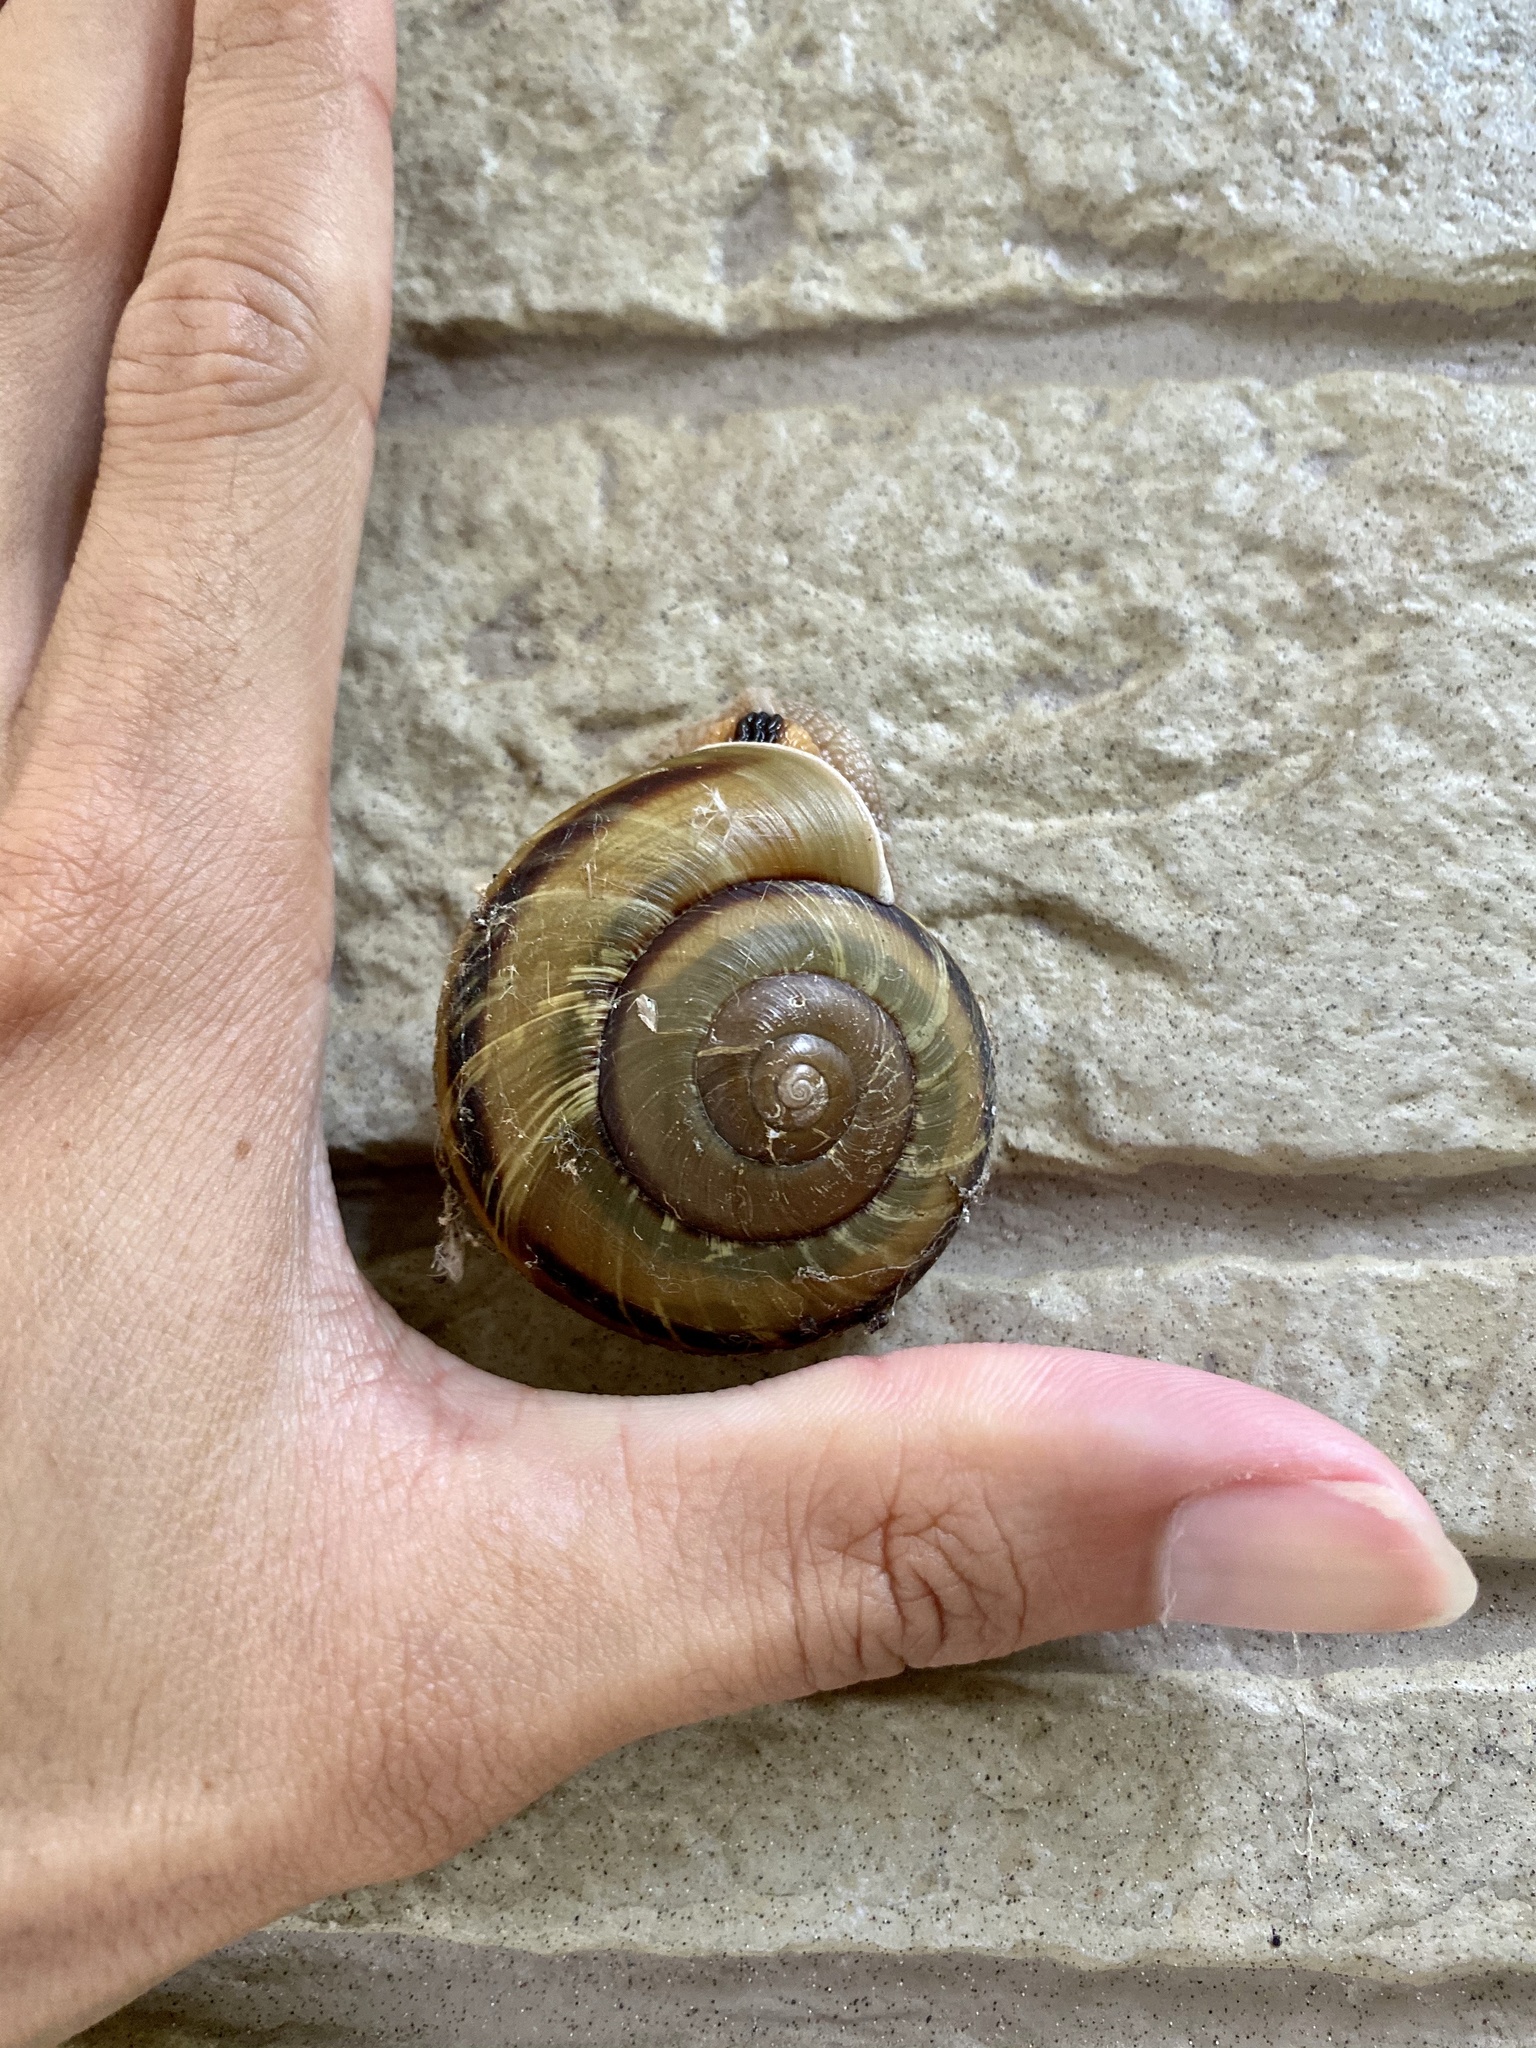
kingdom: Animalia
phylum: Mollusca
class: Gastropoda
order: Stylommatophora
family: Camaenidae
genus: Euhadra
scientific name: Euhadra sandai
